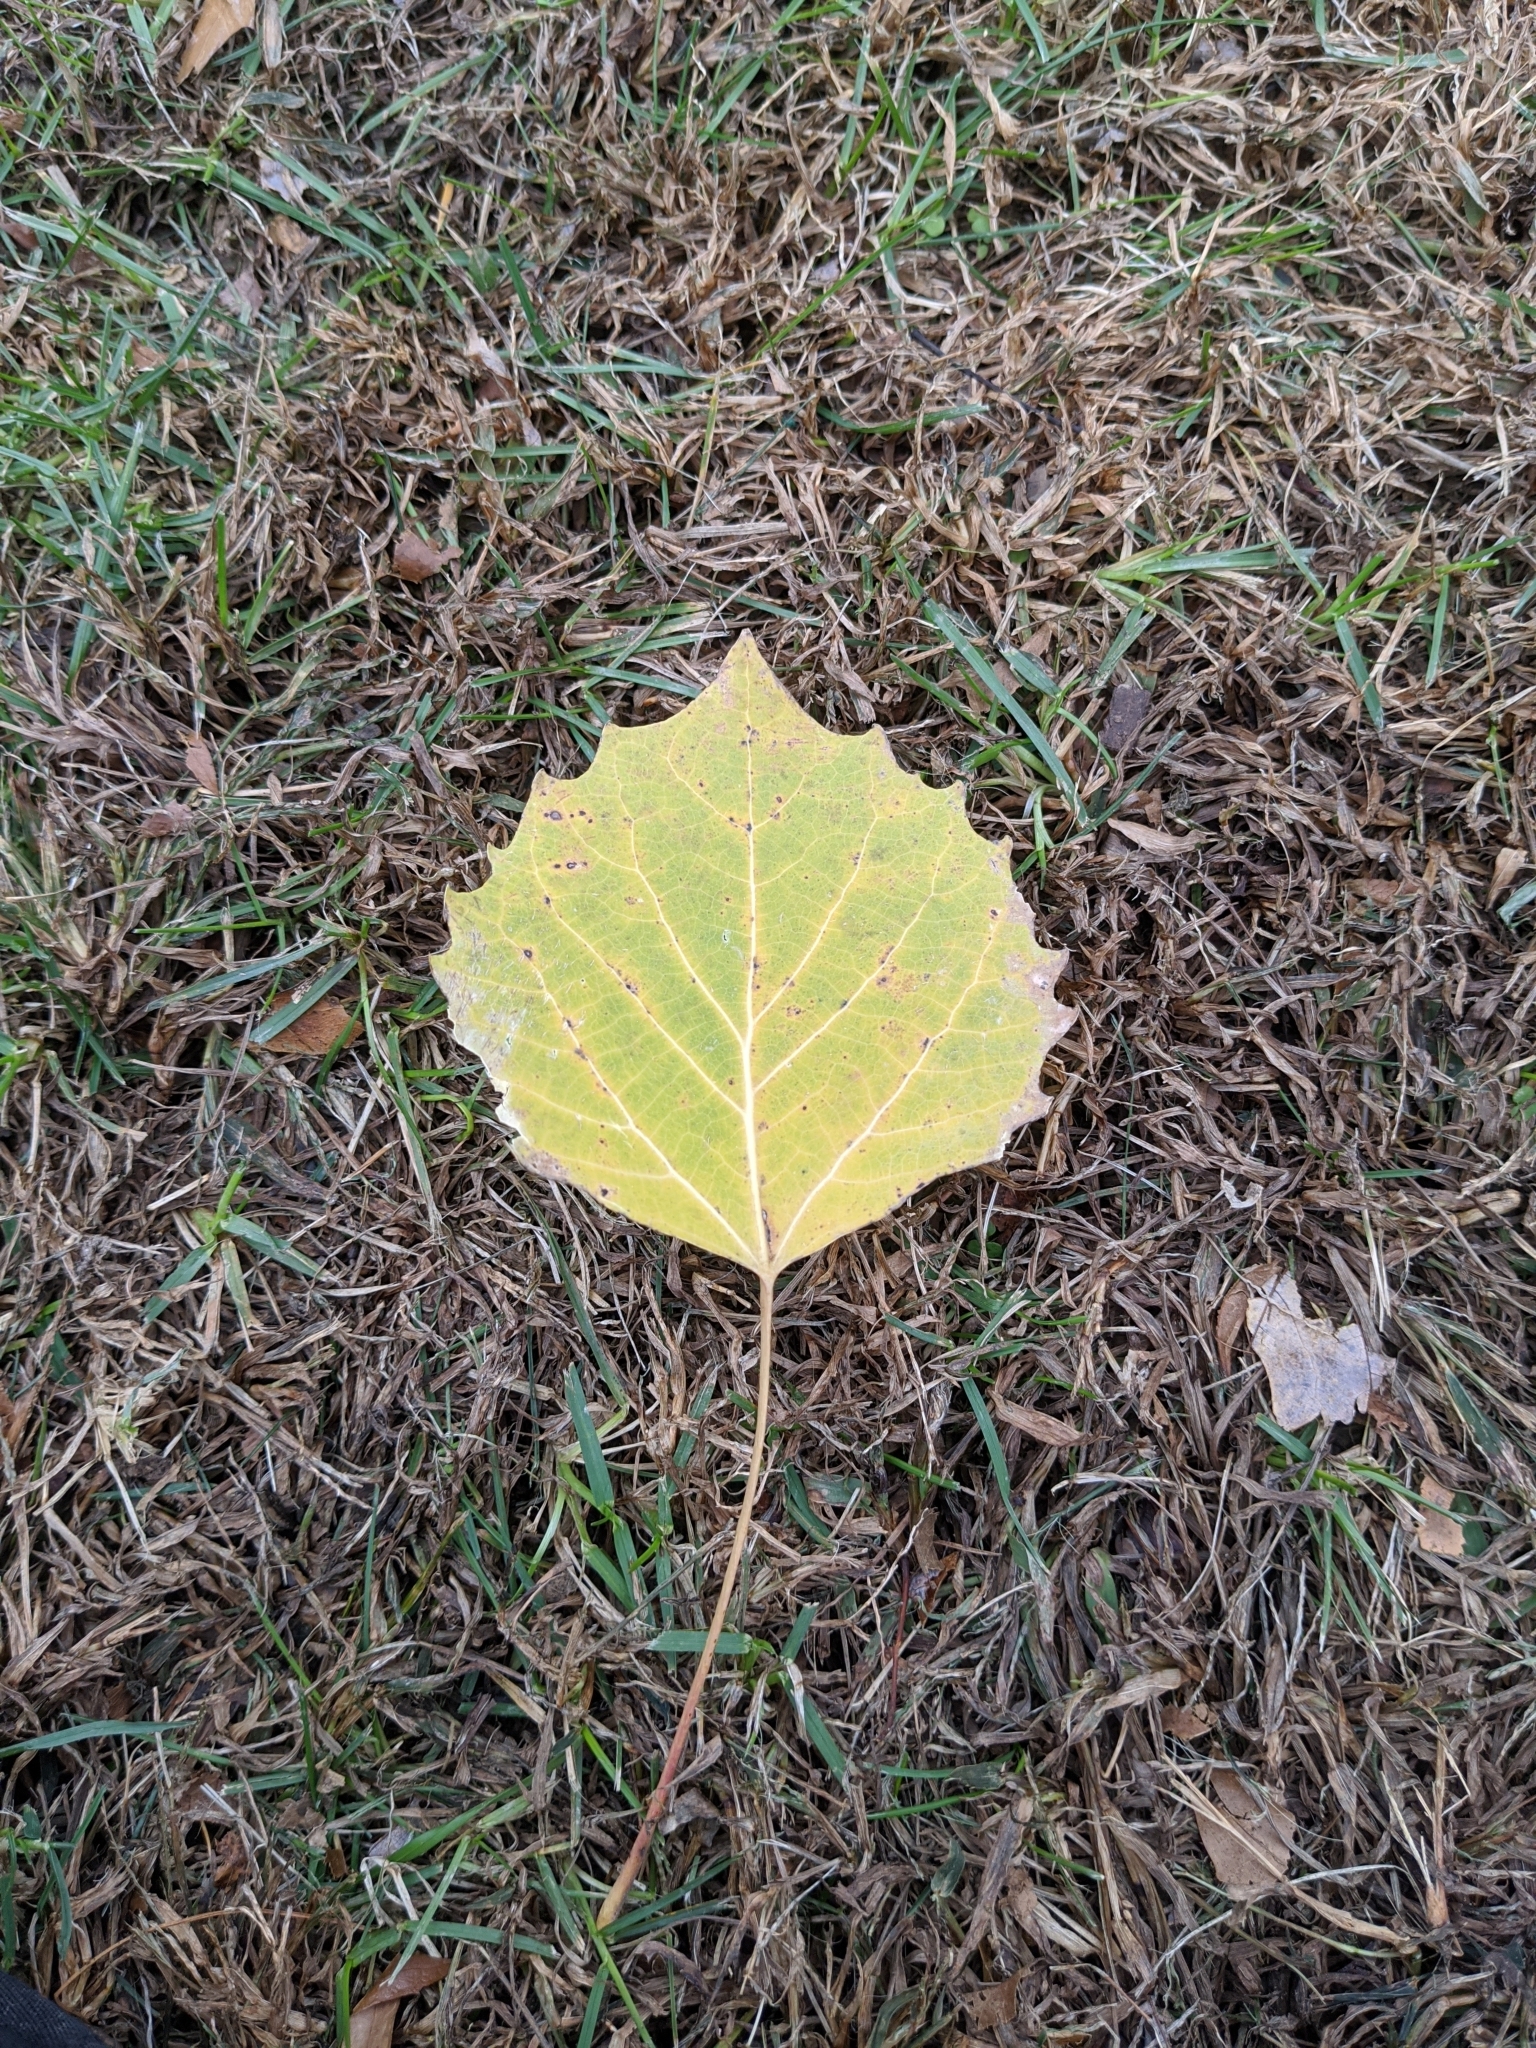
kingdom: Plantae
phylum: Tracheophyta
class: Magnoliopsida
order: Malpighiales
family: Salicaceae
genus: Populus
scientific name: Populus grandidentata
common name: Bigtooth aspen
